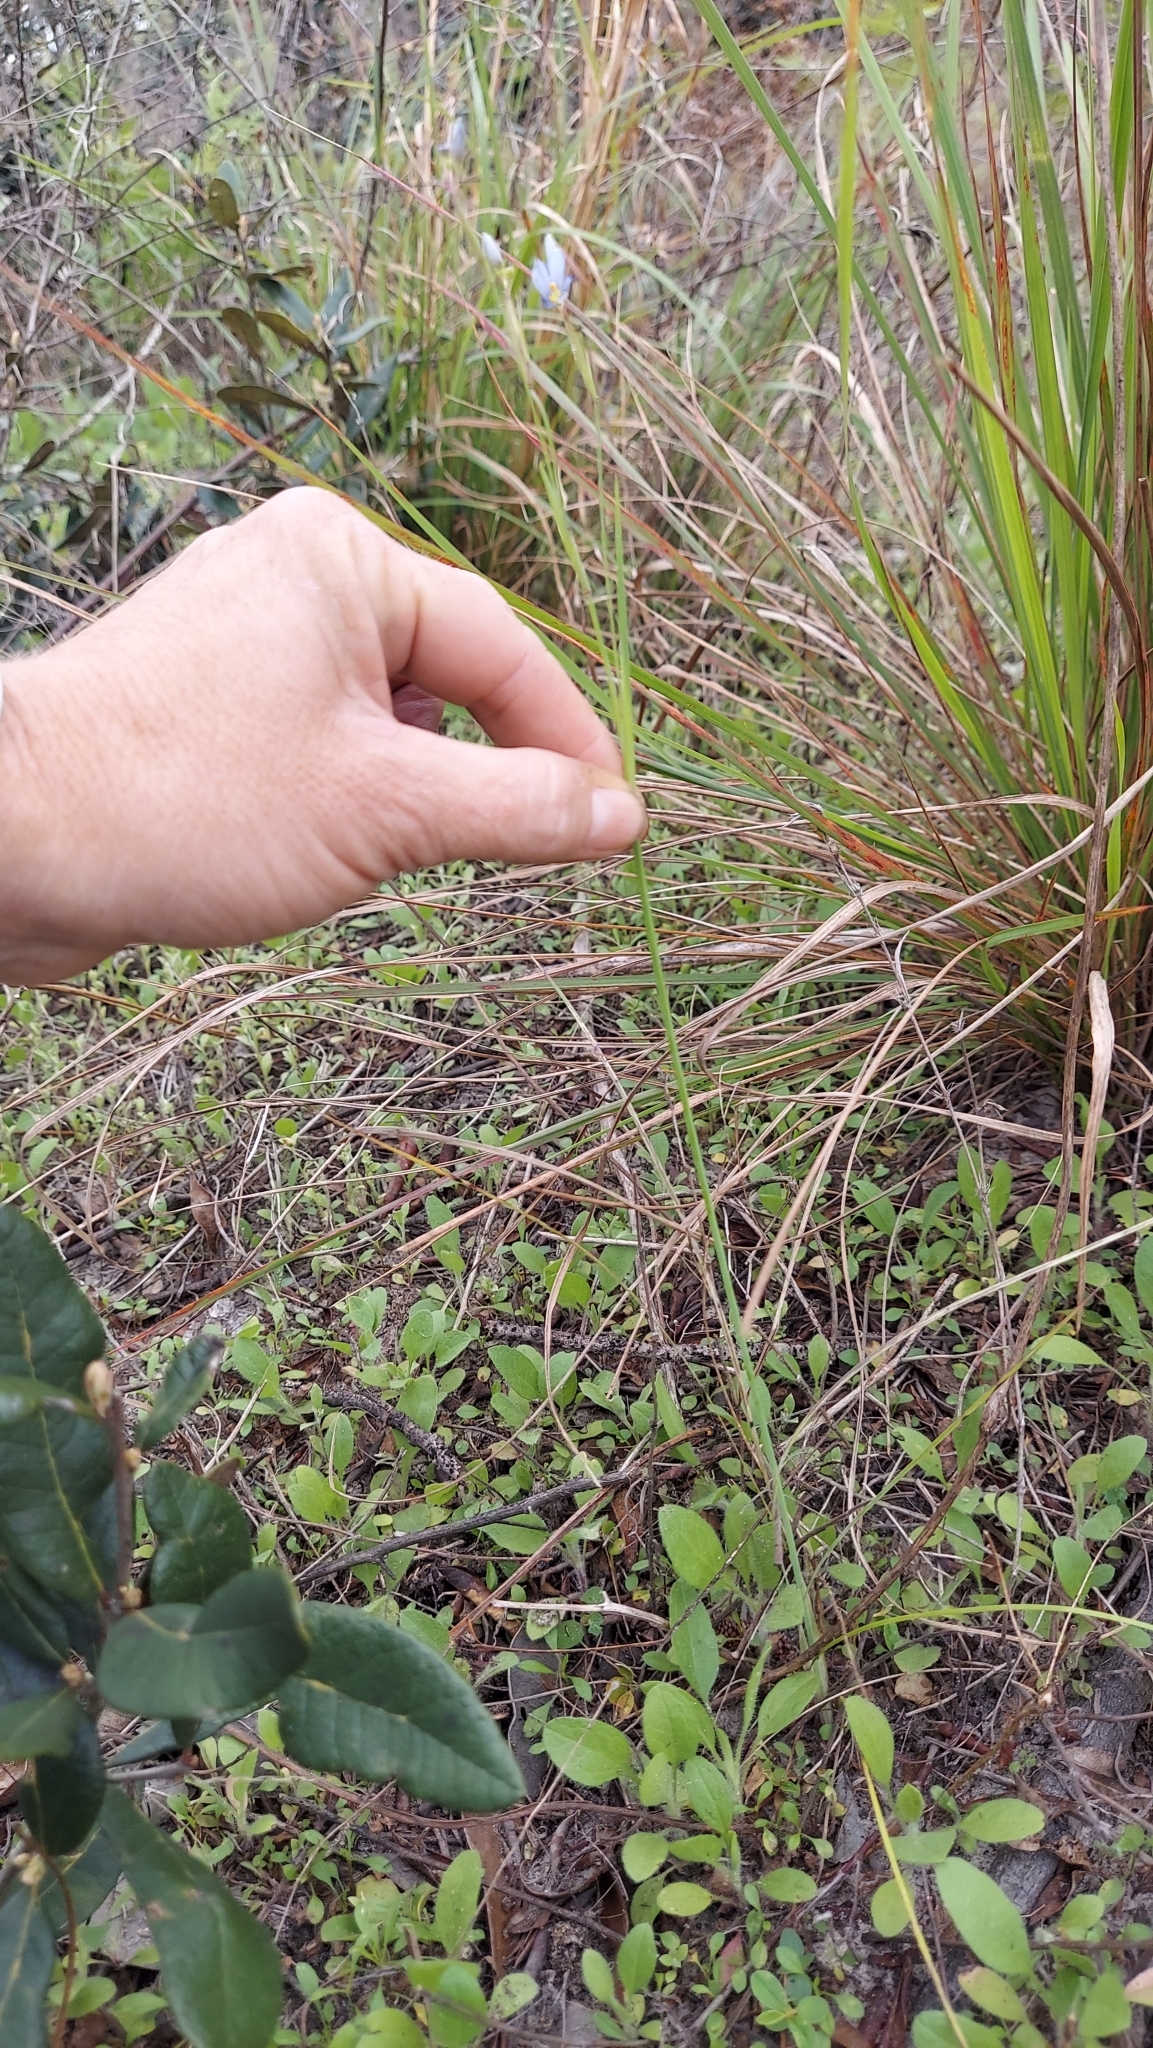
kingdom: Plantae
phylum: Tracheophyta
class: Liliopsida
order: Asparagales
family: Iridaceae
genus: Sisyrinchium
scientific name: Sisyrinchium xerophyllum
